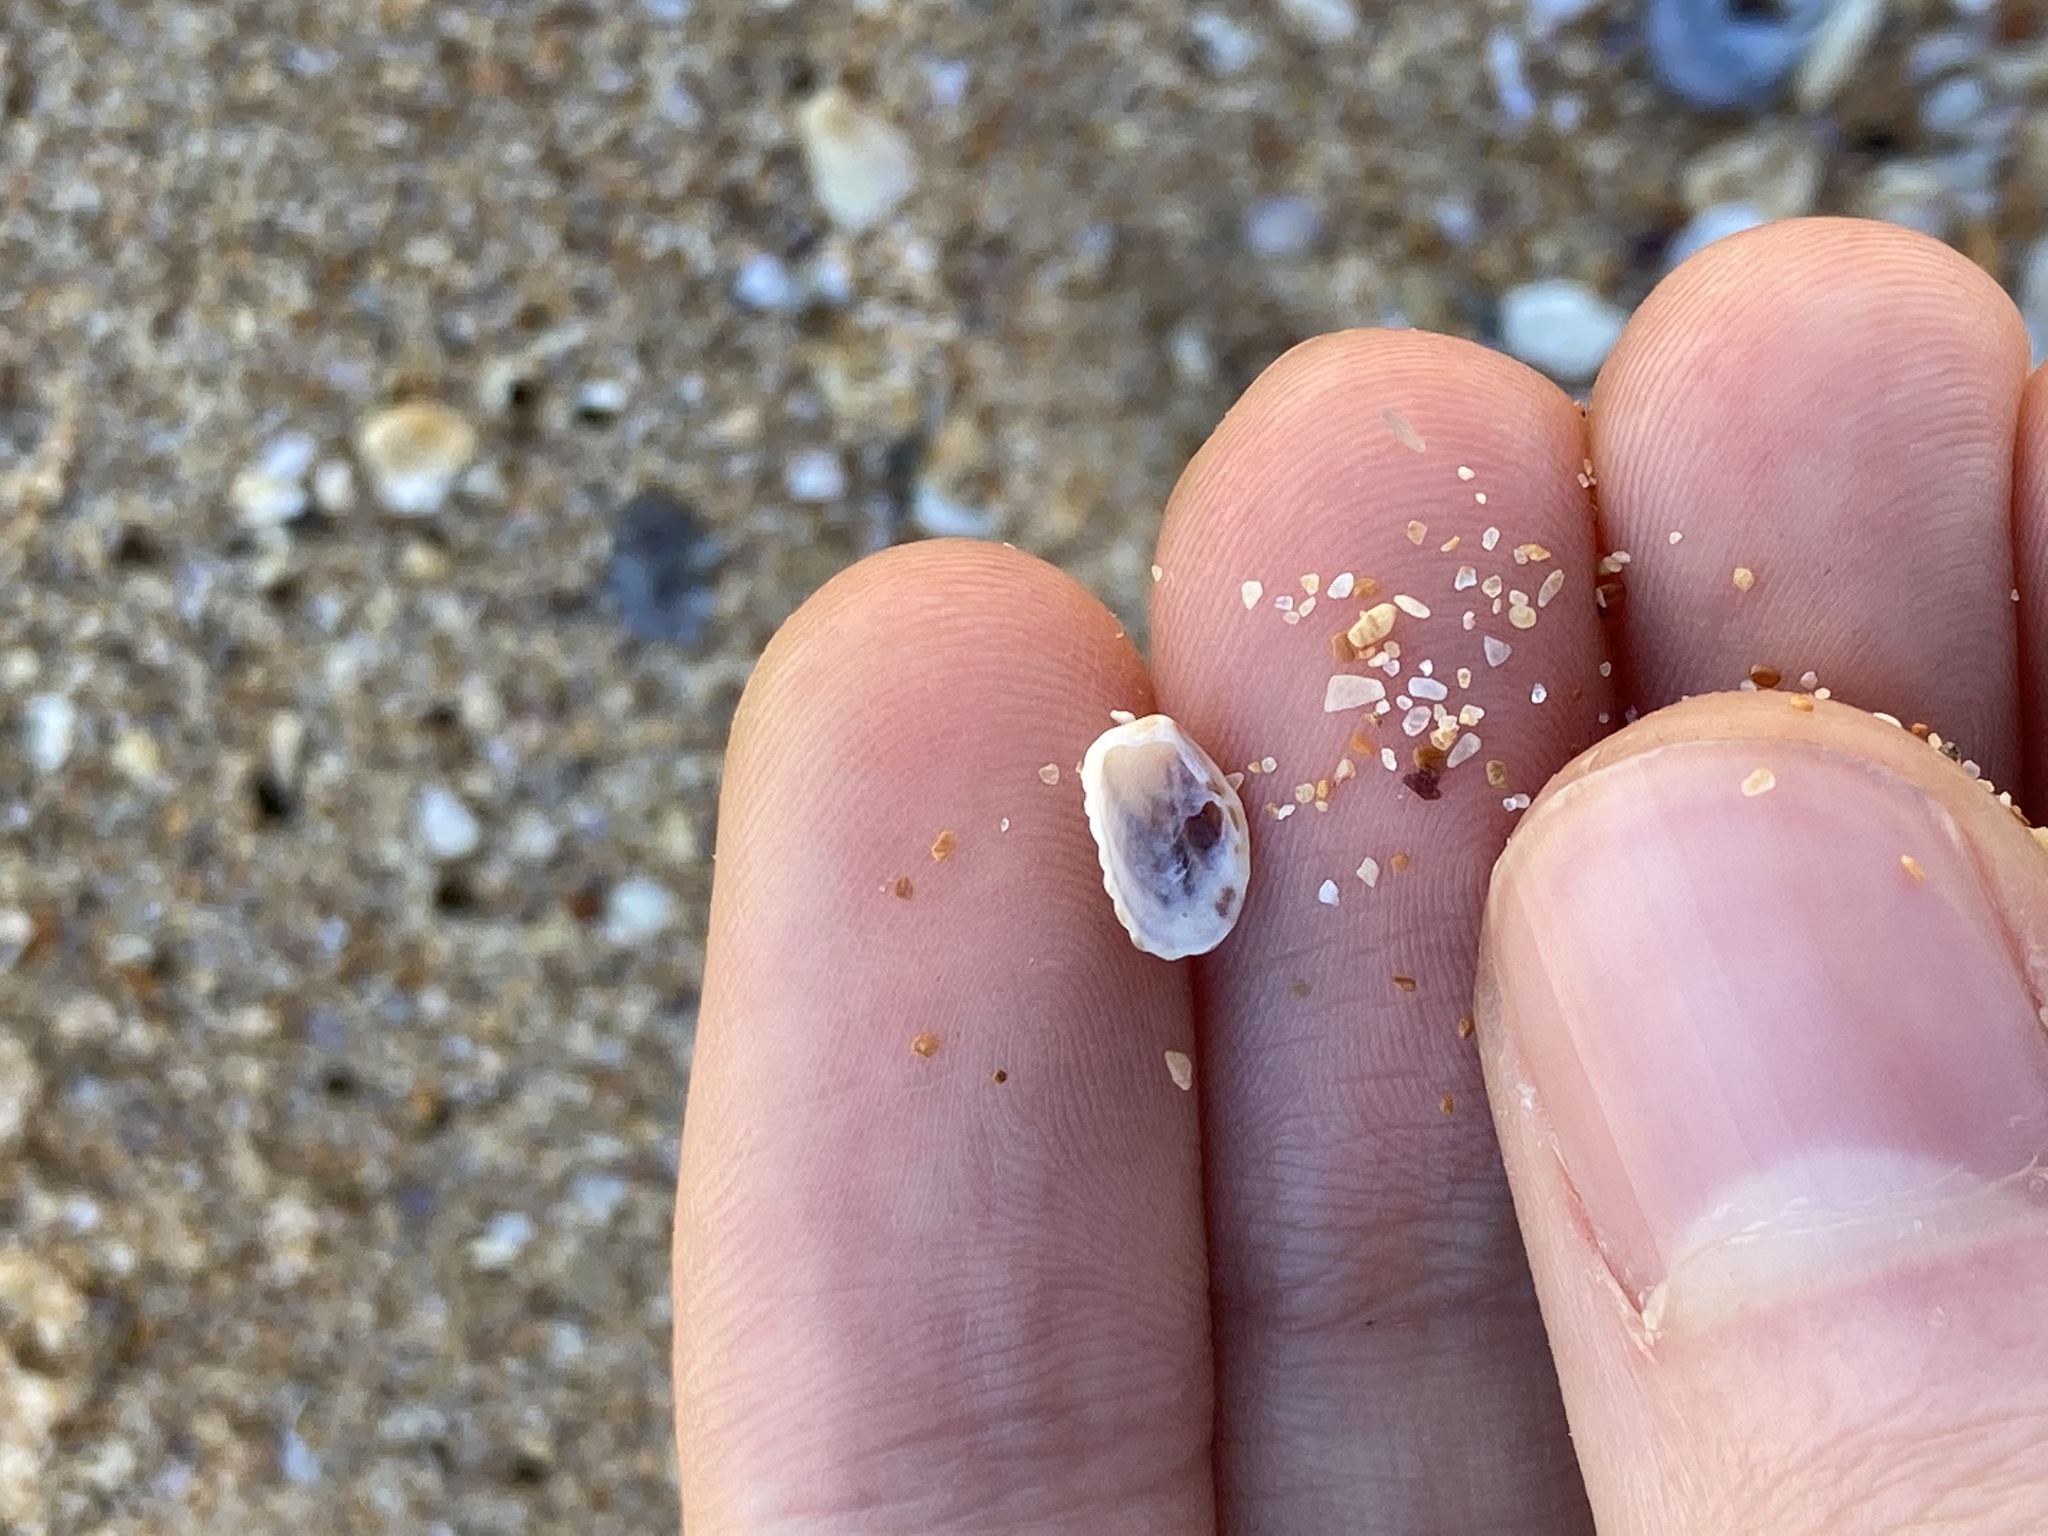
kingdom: Animalia
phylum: Mollusca
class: Bivalvia
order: Carditida
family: Carditidae
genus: Cardita
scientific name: Cardita aviculina
